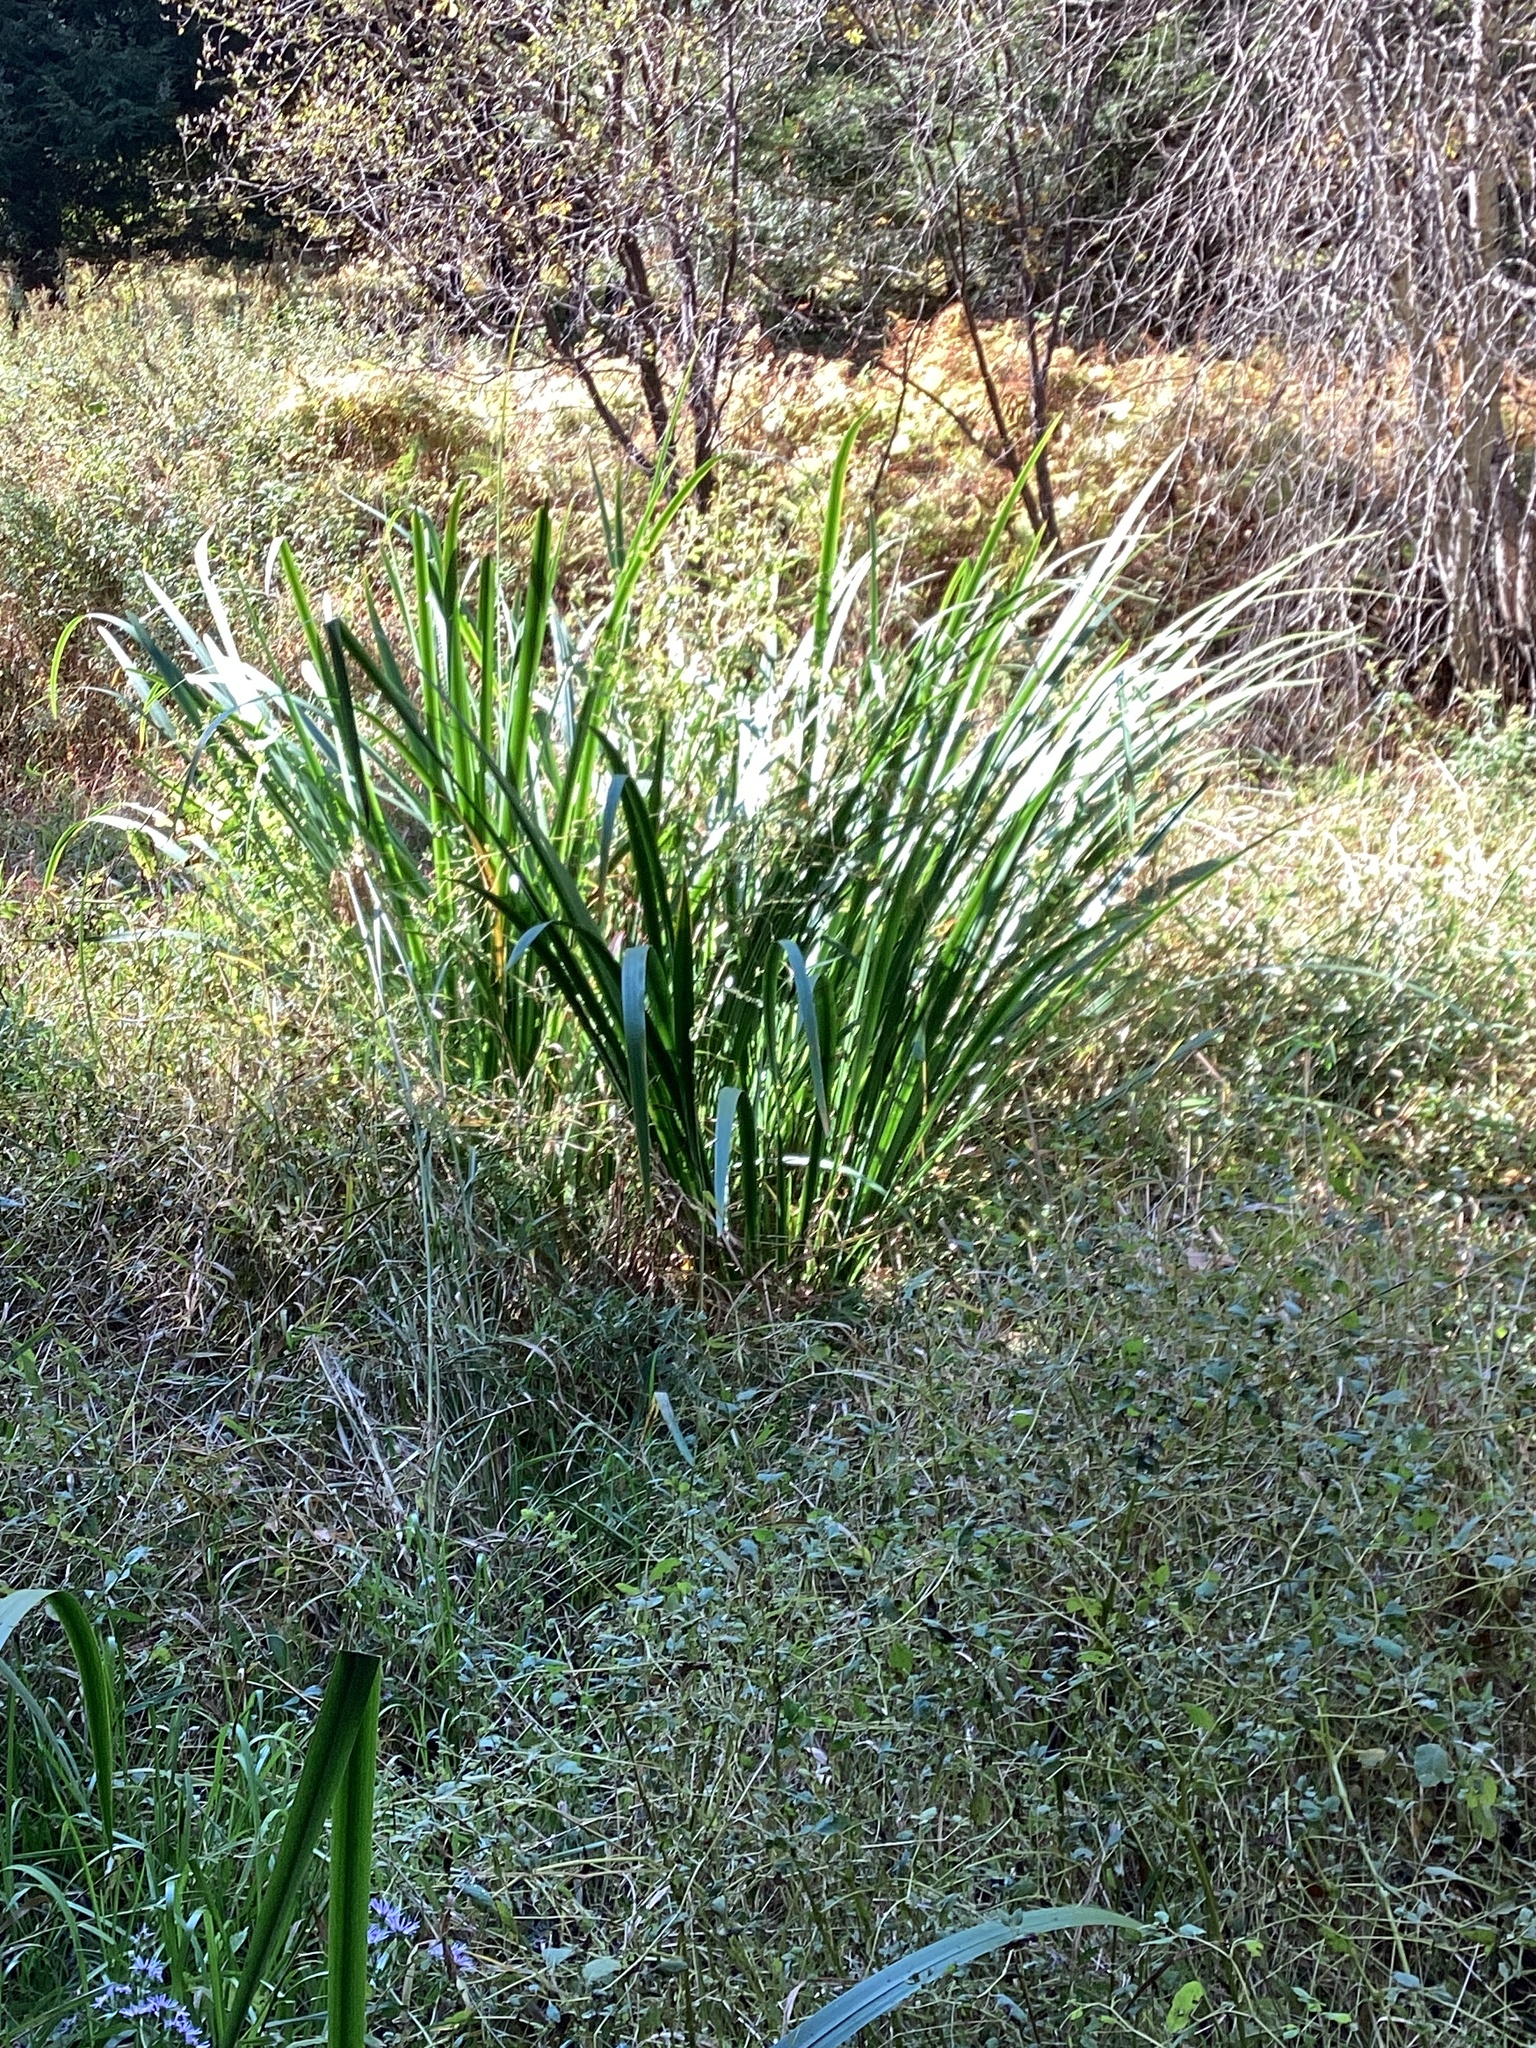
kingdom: Plantae
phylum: Tracheophyta
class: Liliopsida
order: Asparagales
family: Iridaceae
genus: Iris
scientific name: Iris pseudacorus
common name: Yellow flag
